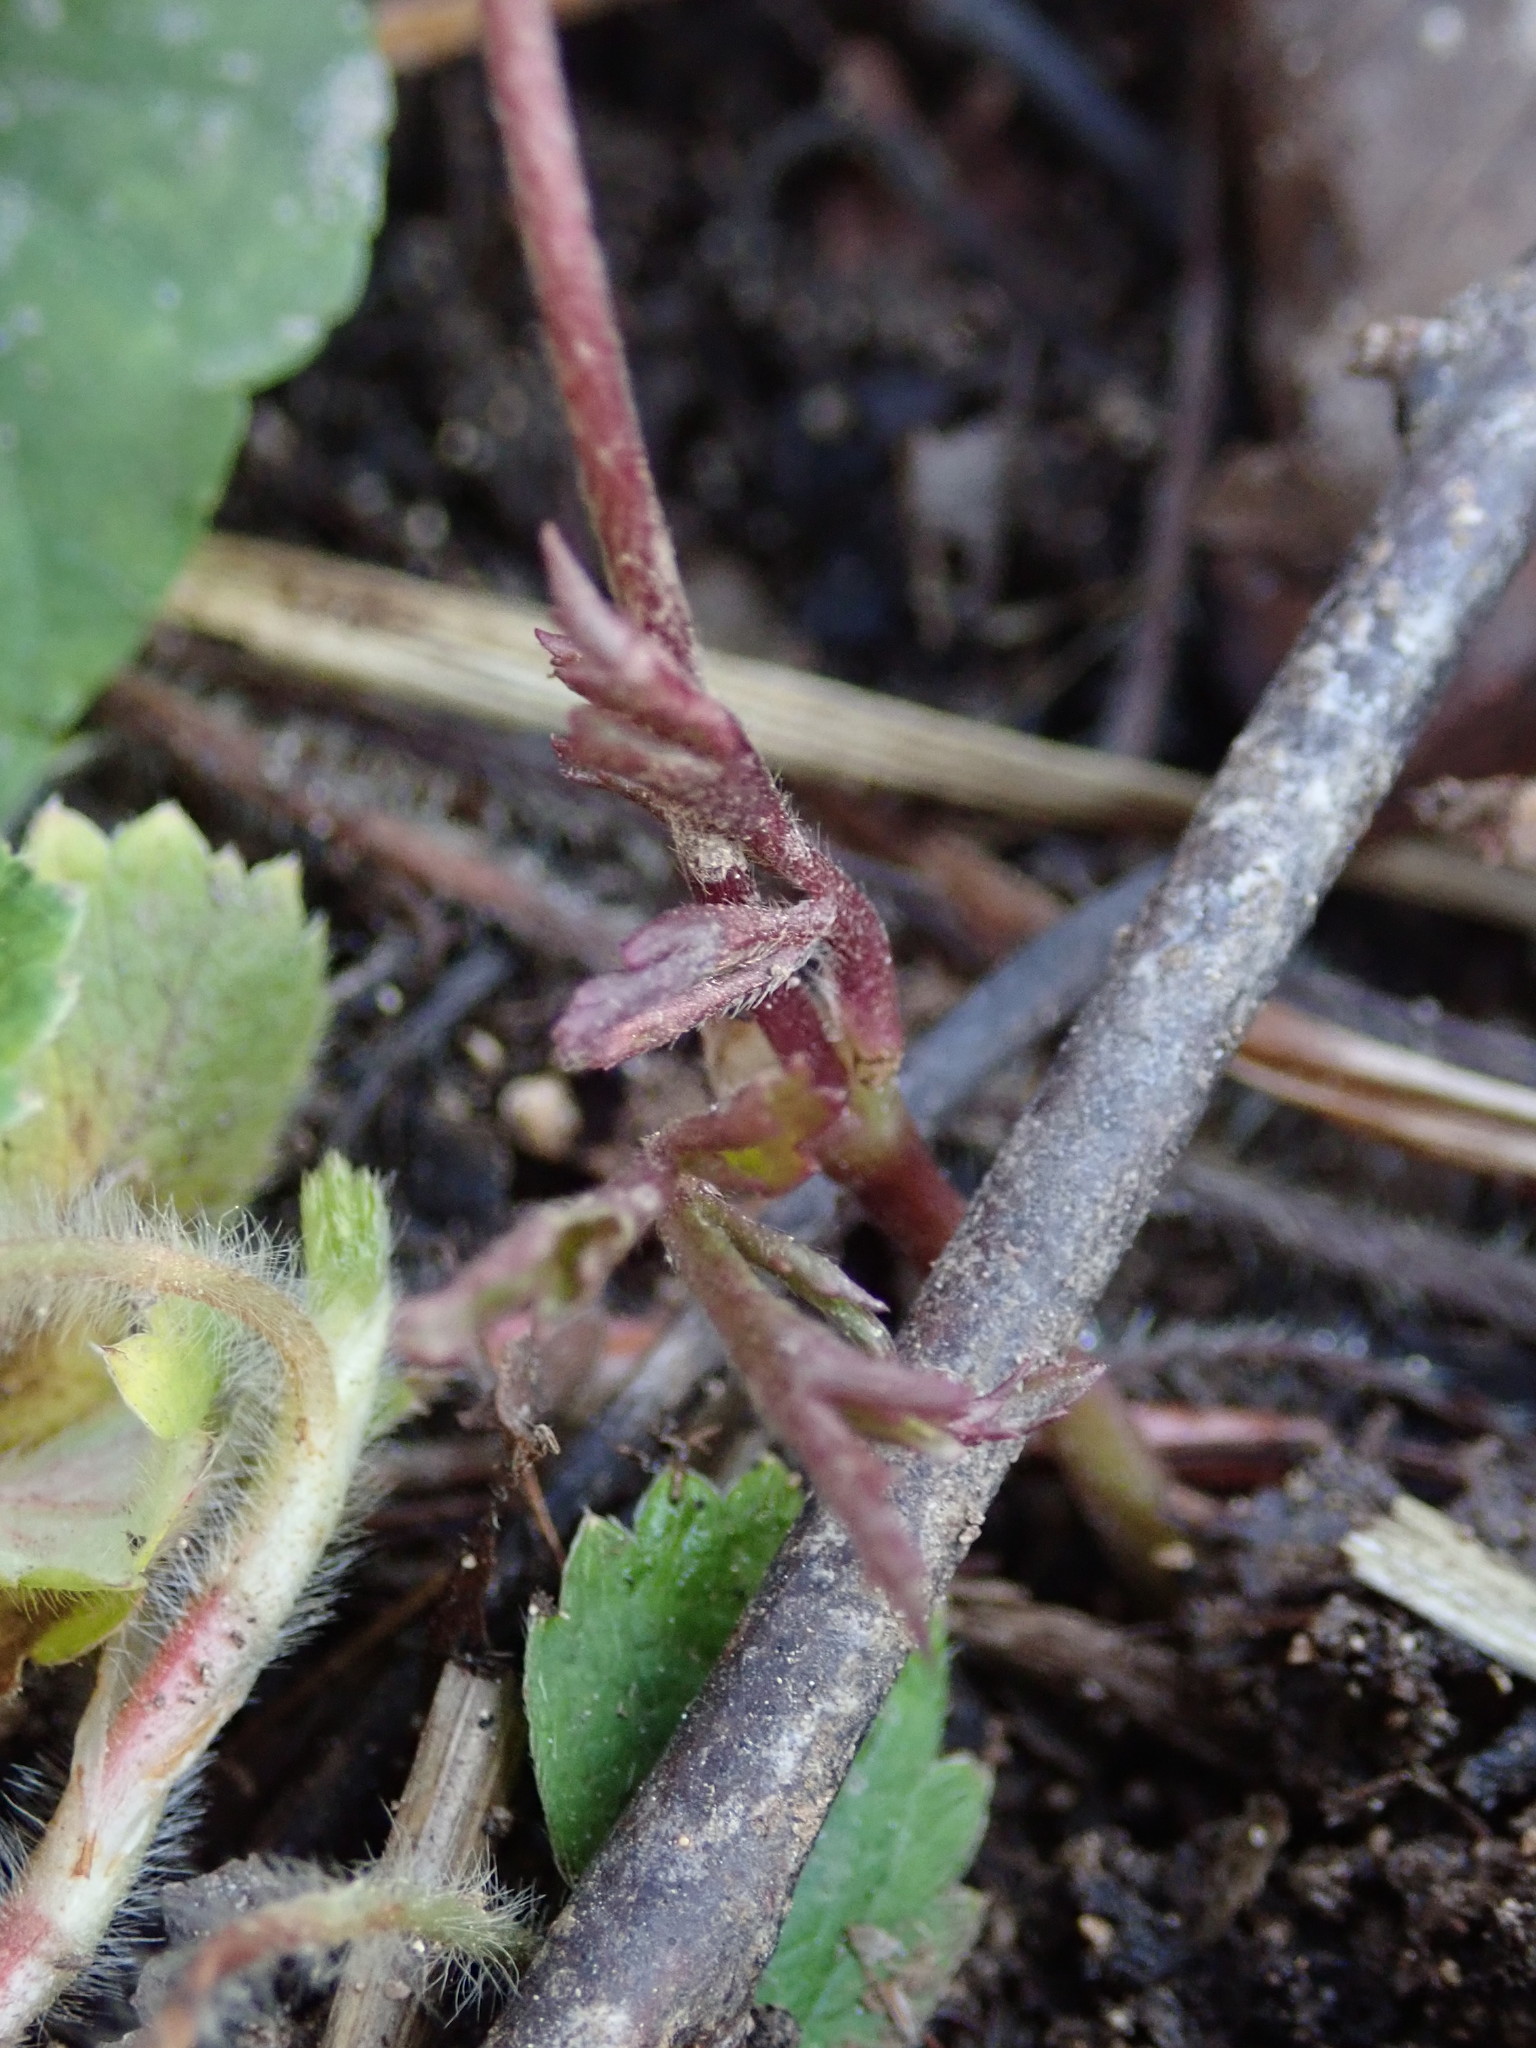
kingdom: Plantae
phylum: Tracheophyta
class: Magnoliopsida
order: Ranunculales
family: Ranunculaceae
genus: Anemone
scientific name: Anemone nemorosa
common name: Wood anemone
